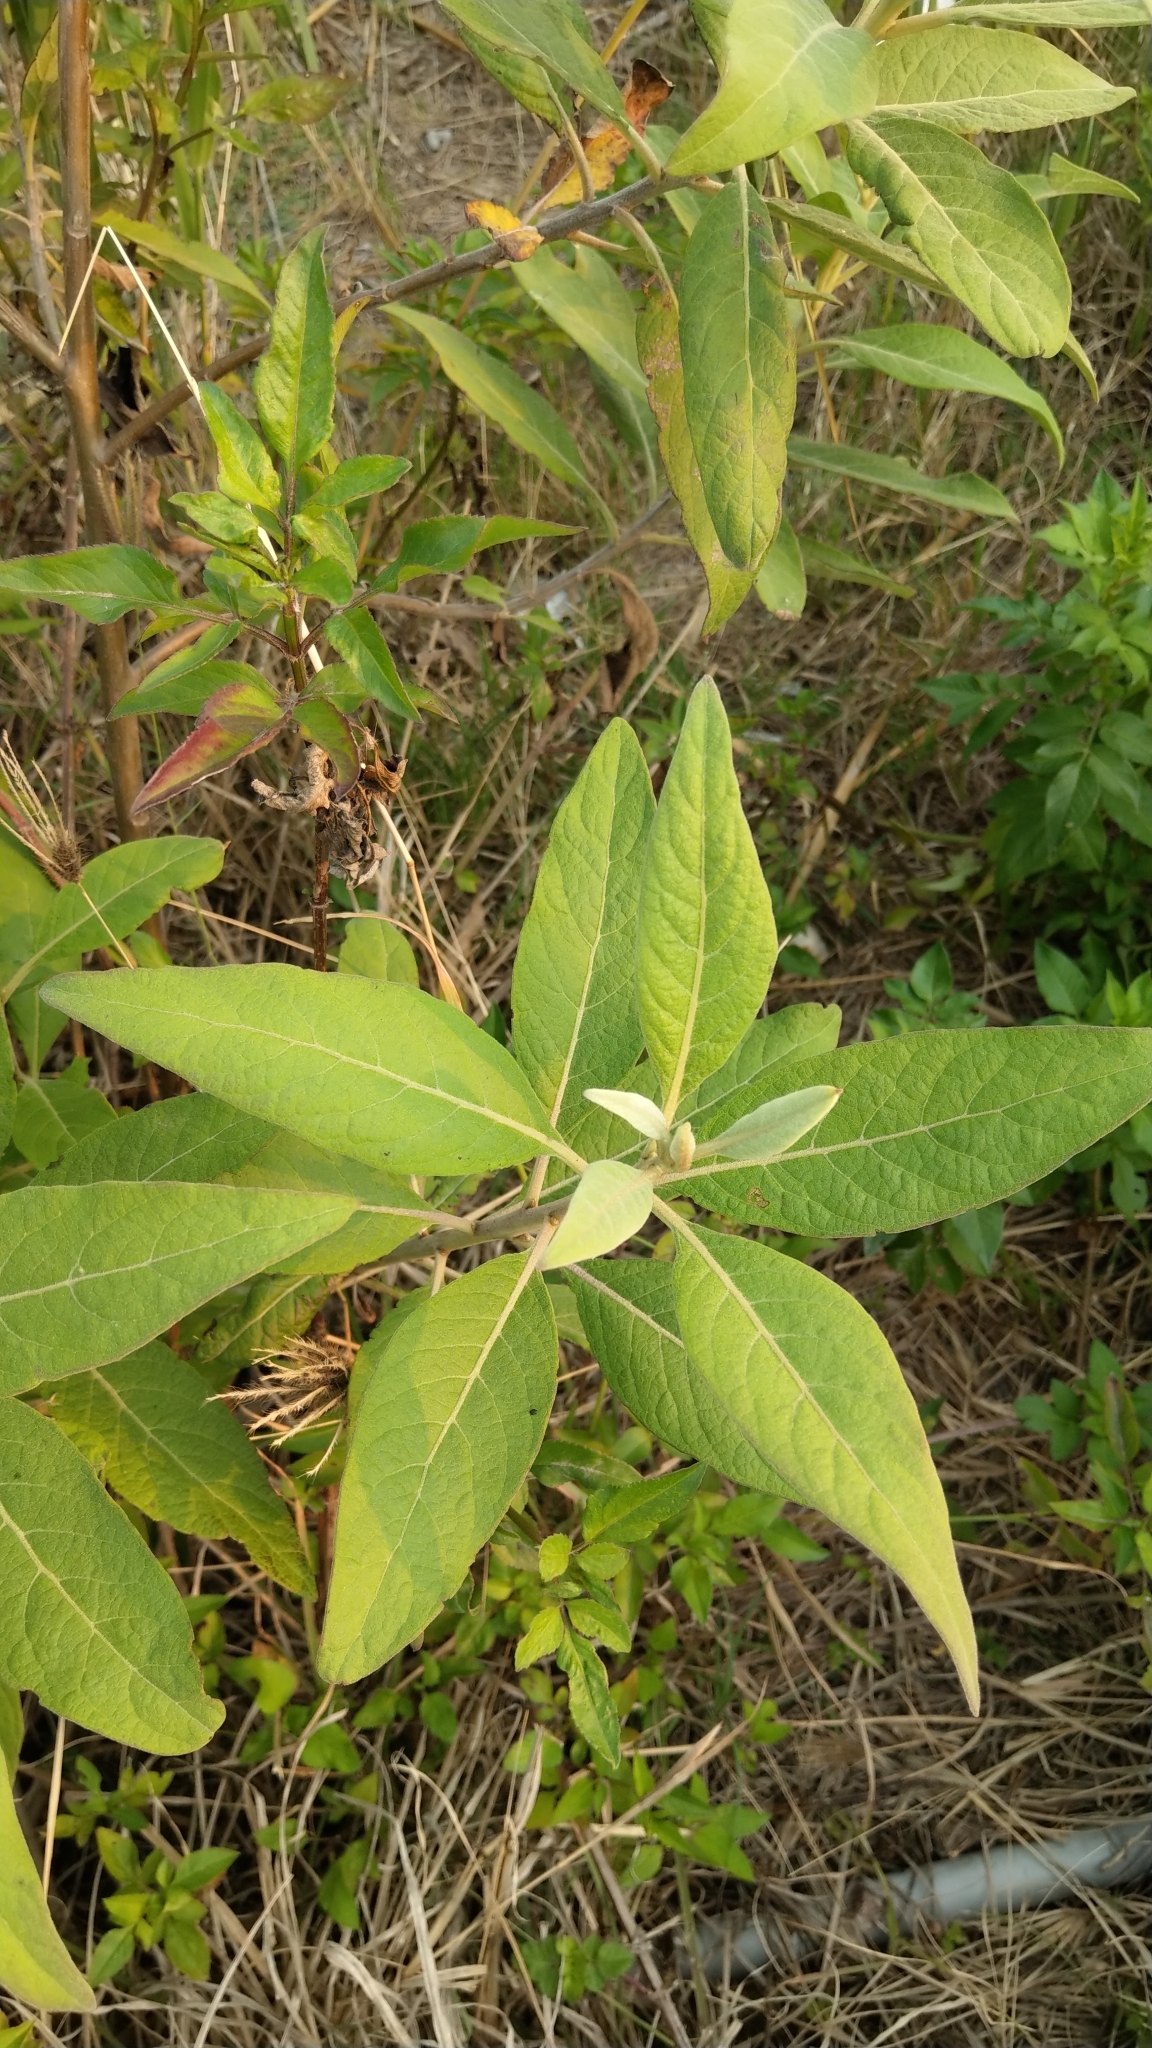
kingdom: Plantae
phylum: Tracheophyta
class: Magnoliopsida
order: Asterales
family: Asteraceae
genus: Pluchea
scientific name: Pluchea carolinensis
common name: Marsh fleabane
